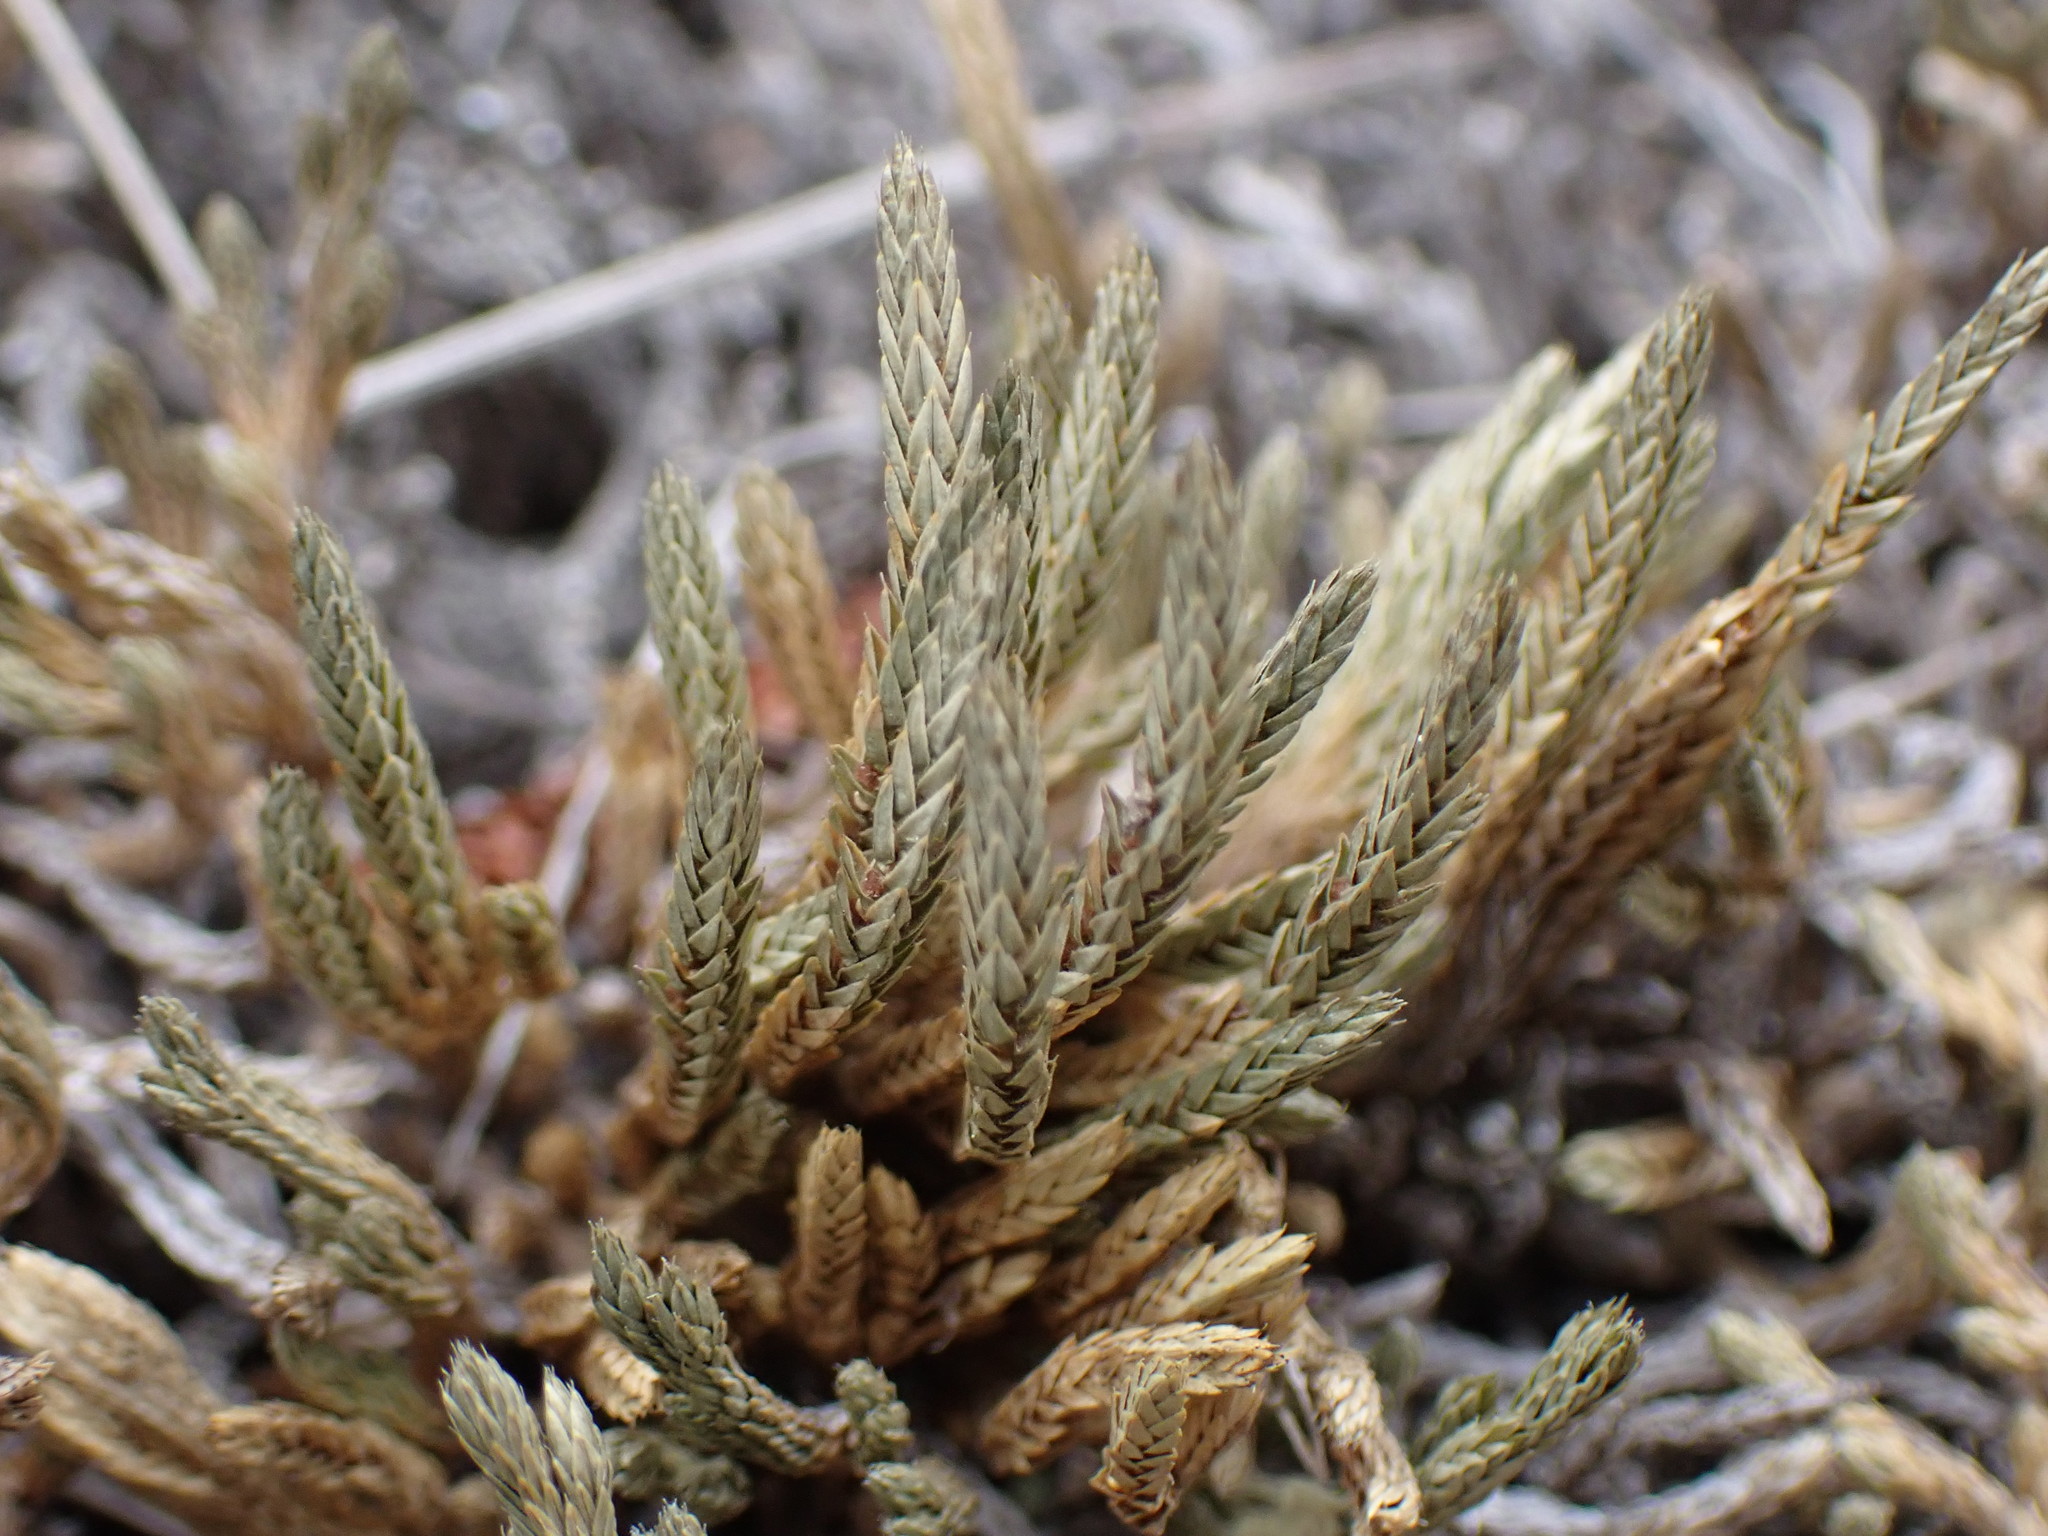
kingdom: Plantae
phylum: Tracheophyta
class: Lycopodiopsida
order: Selaginellales
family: Selaginellaceae
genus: Selaginella
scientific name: Selaginella wallacei
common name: Wallace's selaginella
